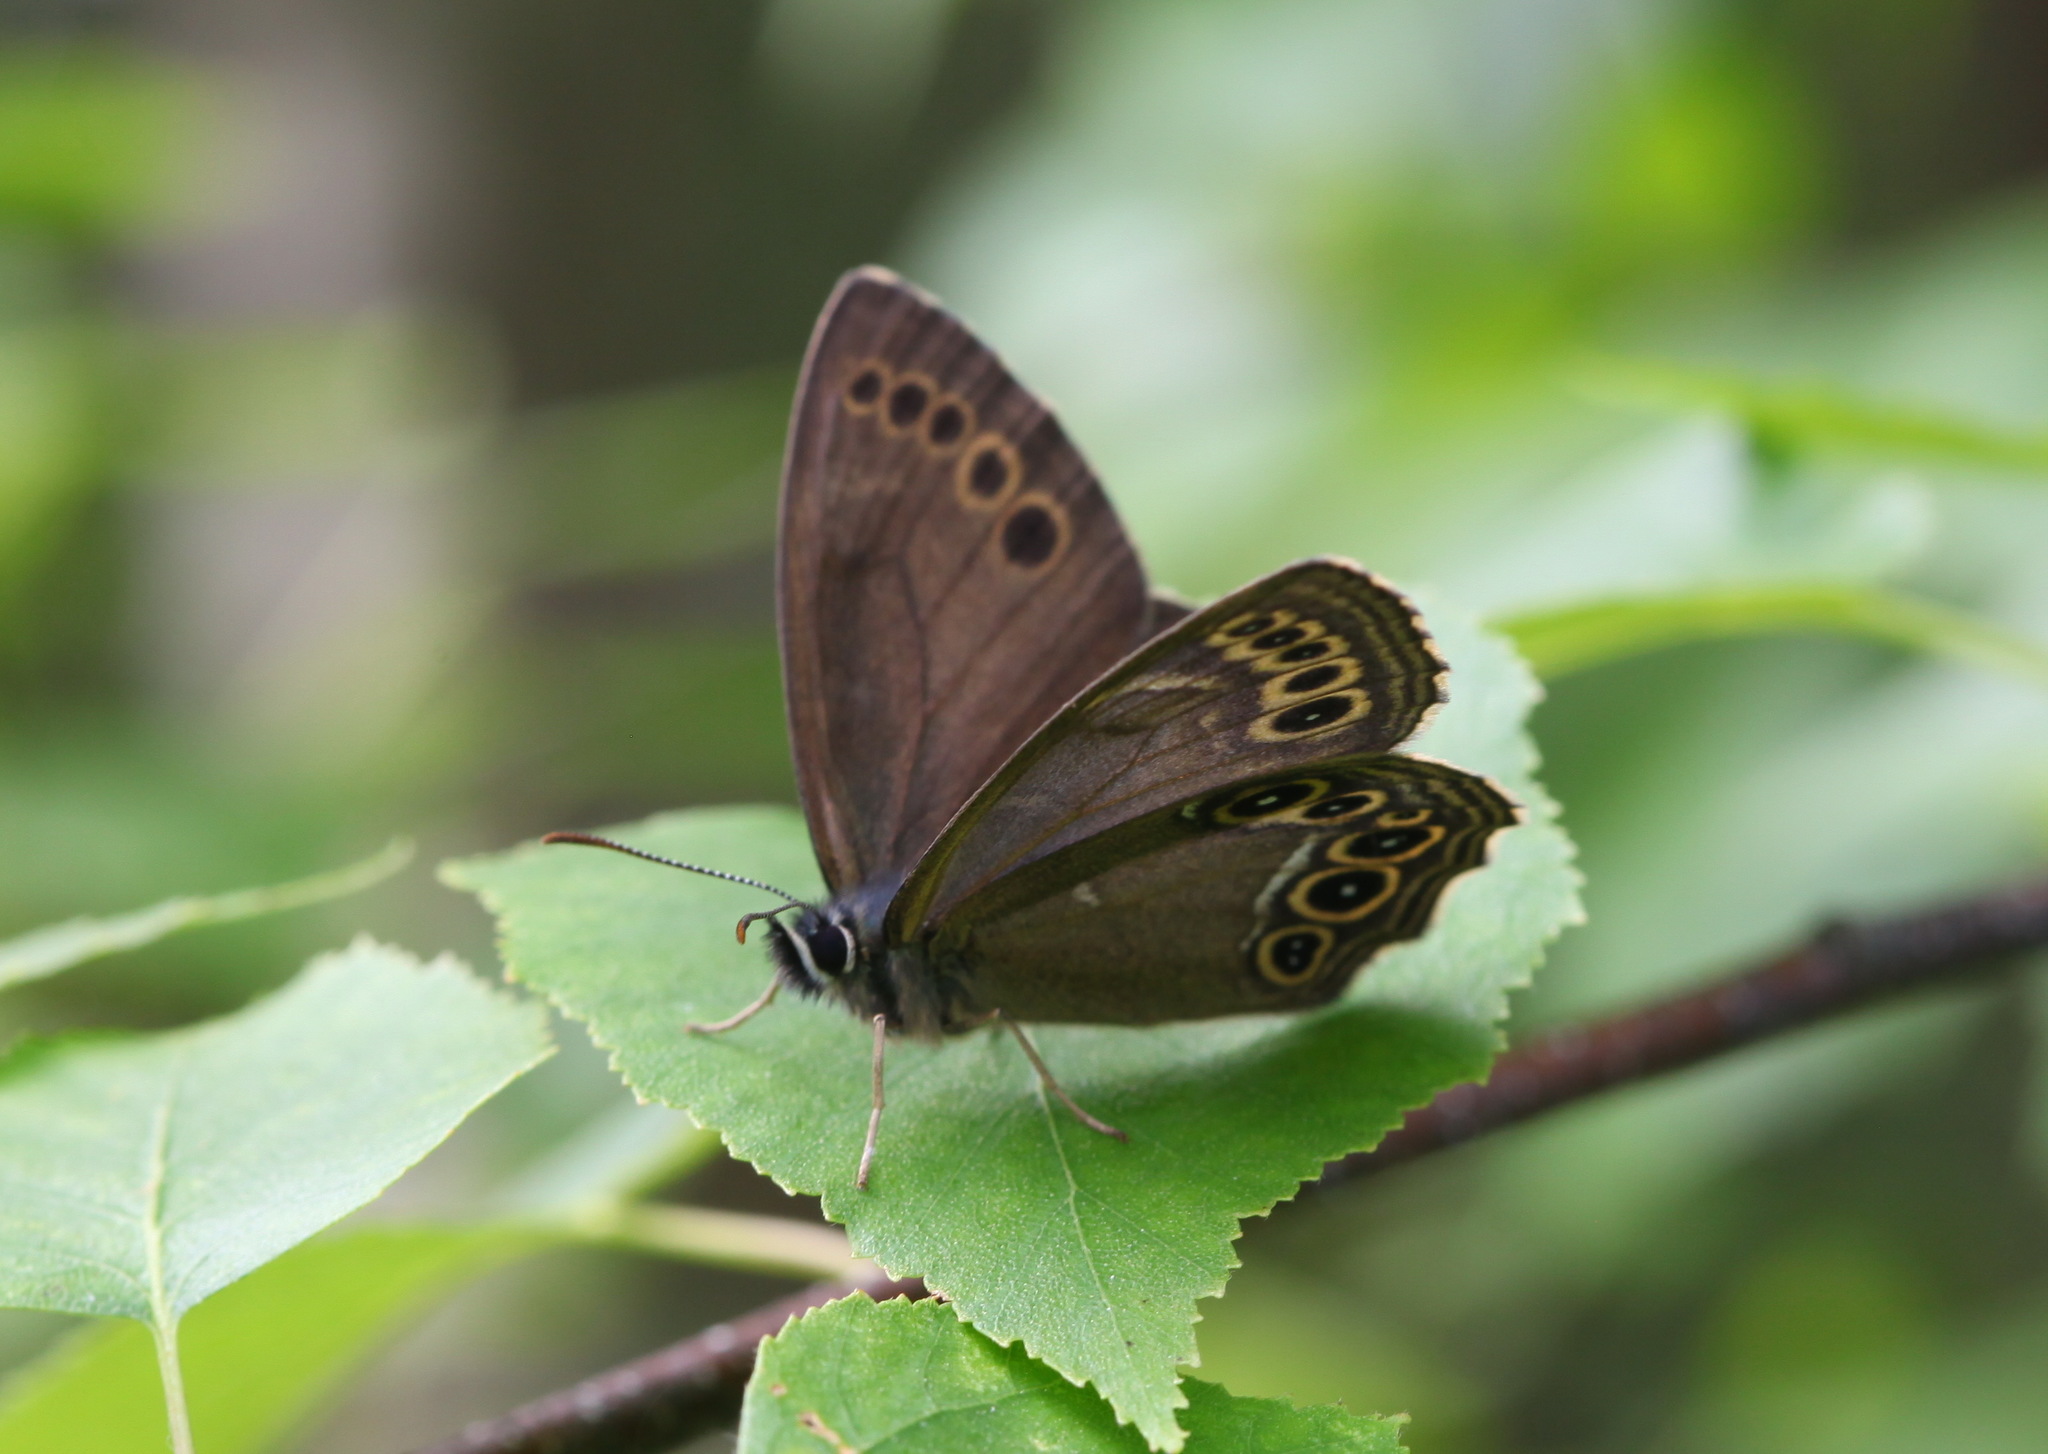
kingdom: Animalia
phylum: Arthropoda
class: Insecta
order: Lepidoptera
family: Nymphalidae
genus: Pararge
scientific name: Pararge Lopinga achine
